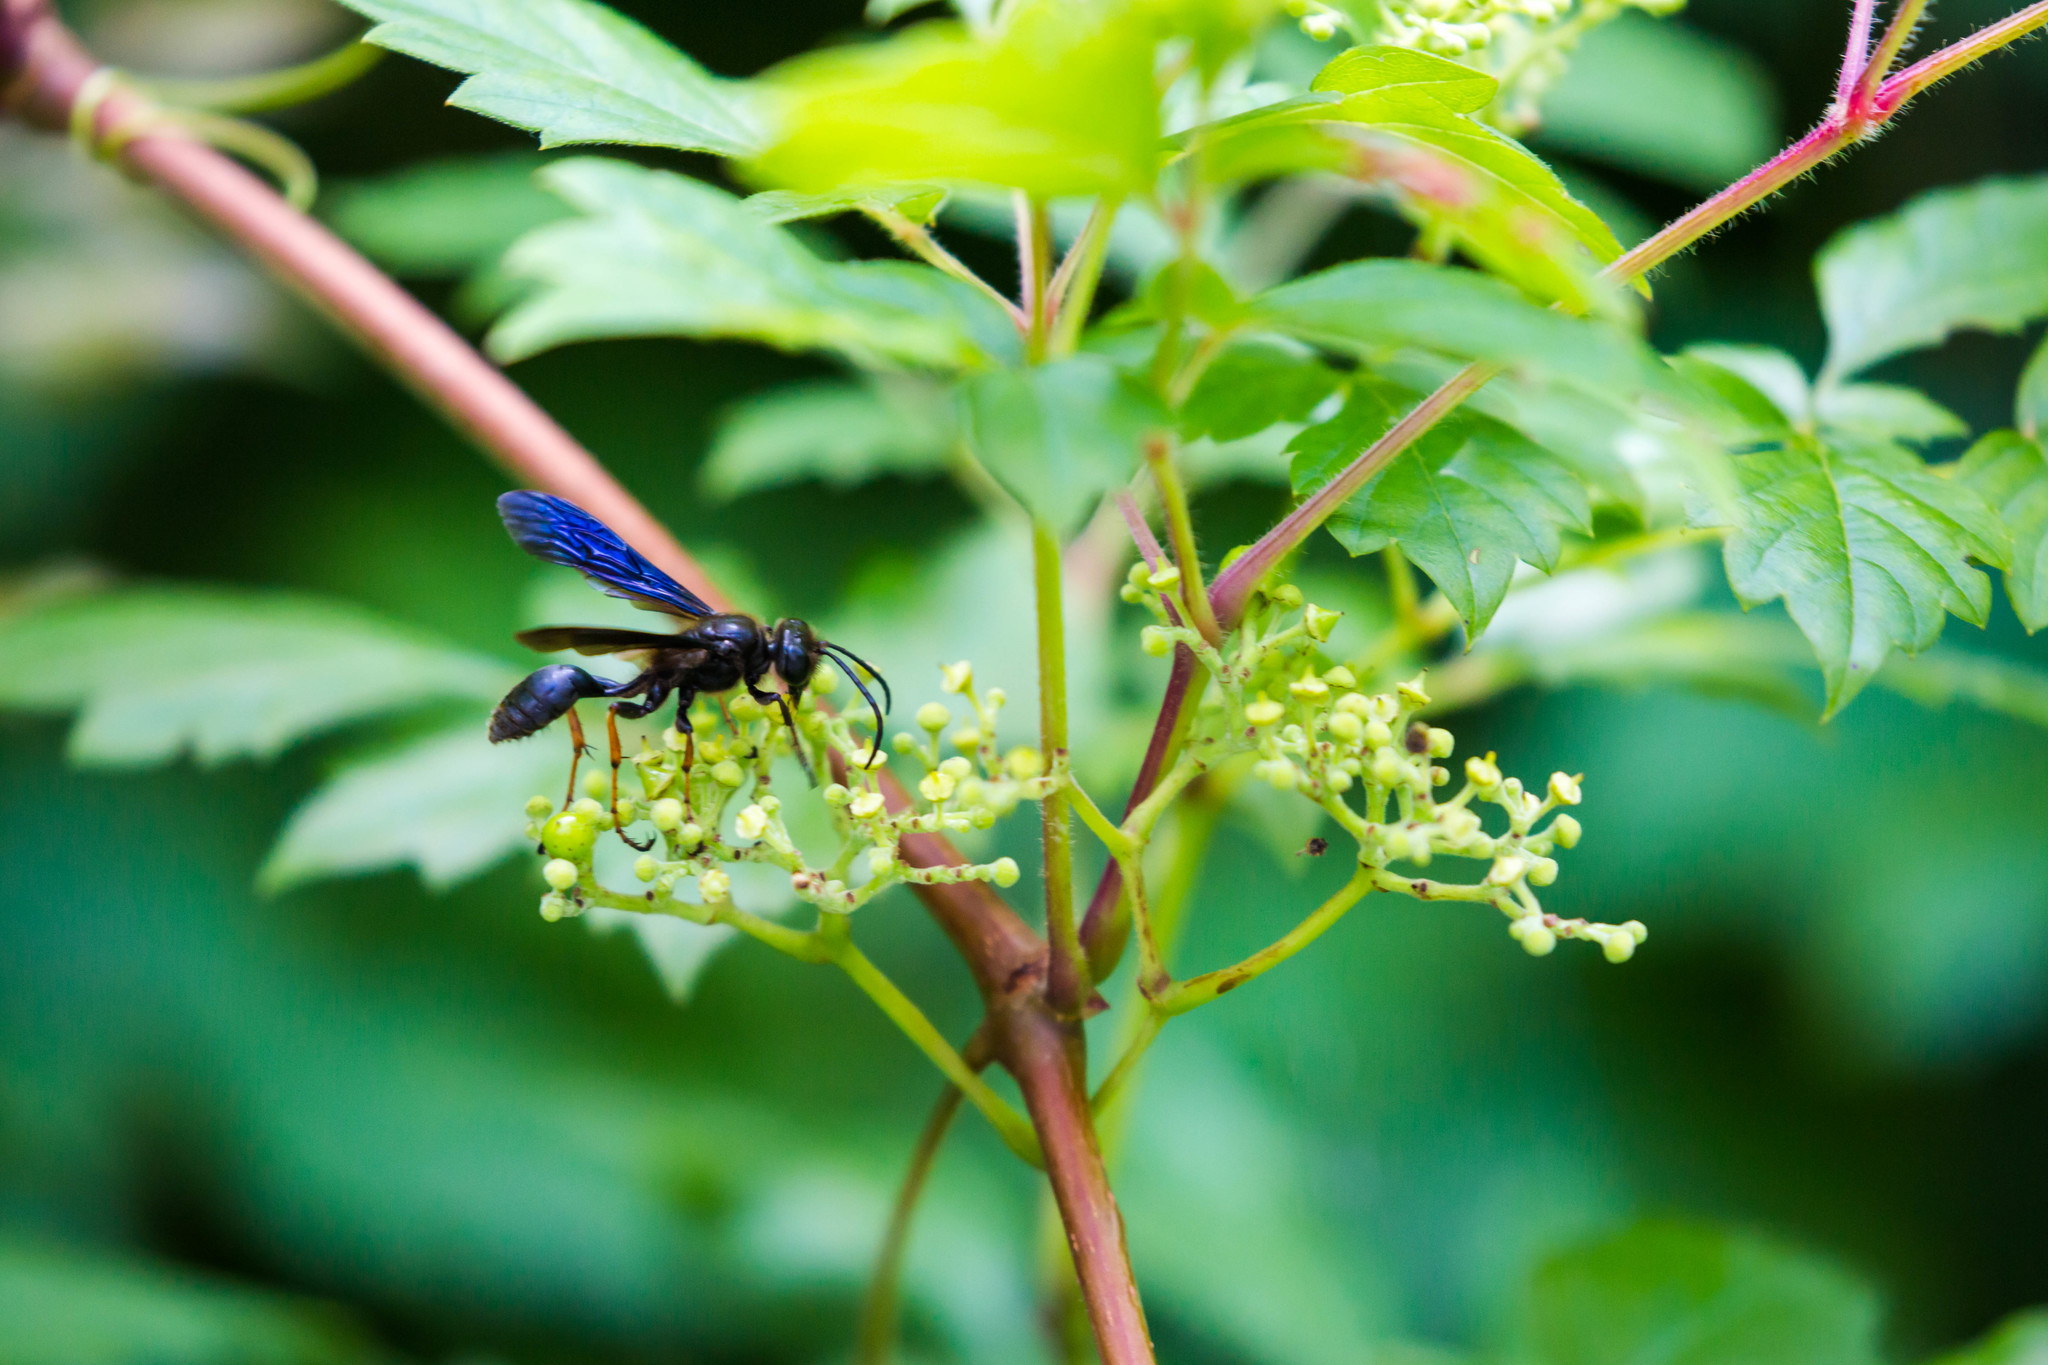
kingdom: Animalia
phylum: Arthropoda
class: Insecta
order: Hymenoptera
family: Sphecidae
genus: Isodontia
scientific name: Isodontia auripes
